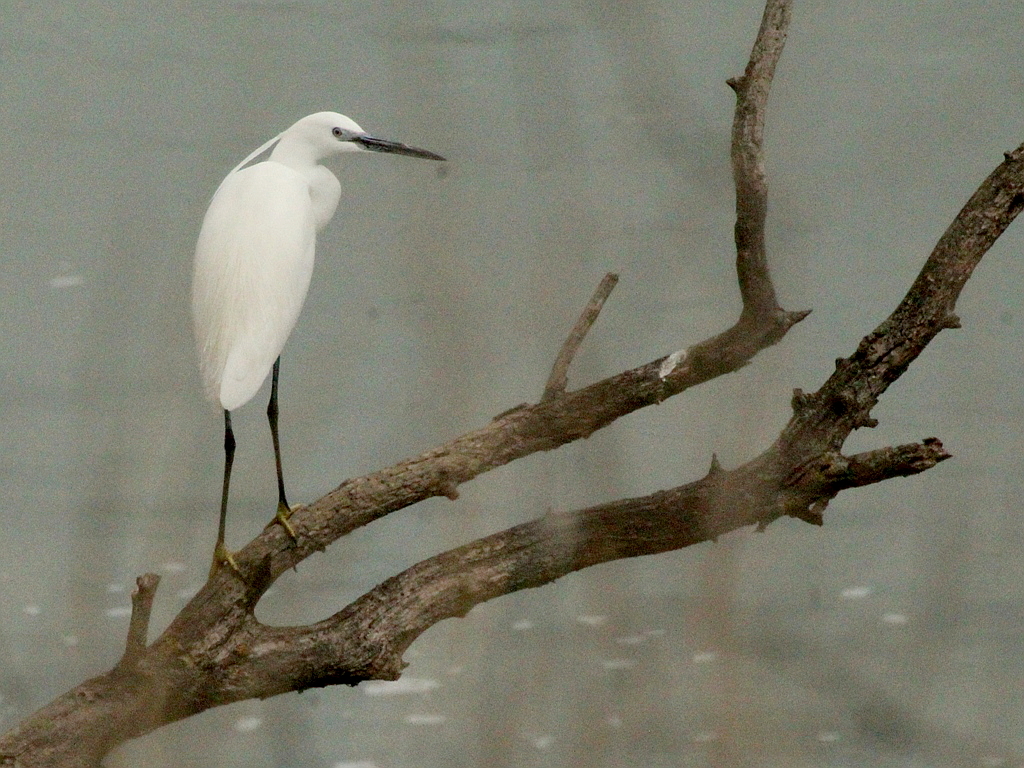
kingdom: Animalia
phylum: Chordata
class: Aves
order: Pelecaniformes
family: Ardeidae
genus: Egretta
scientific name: Egretta garzetta
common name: Little egret
